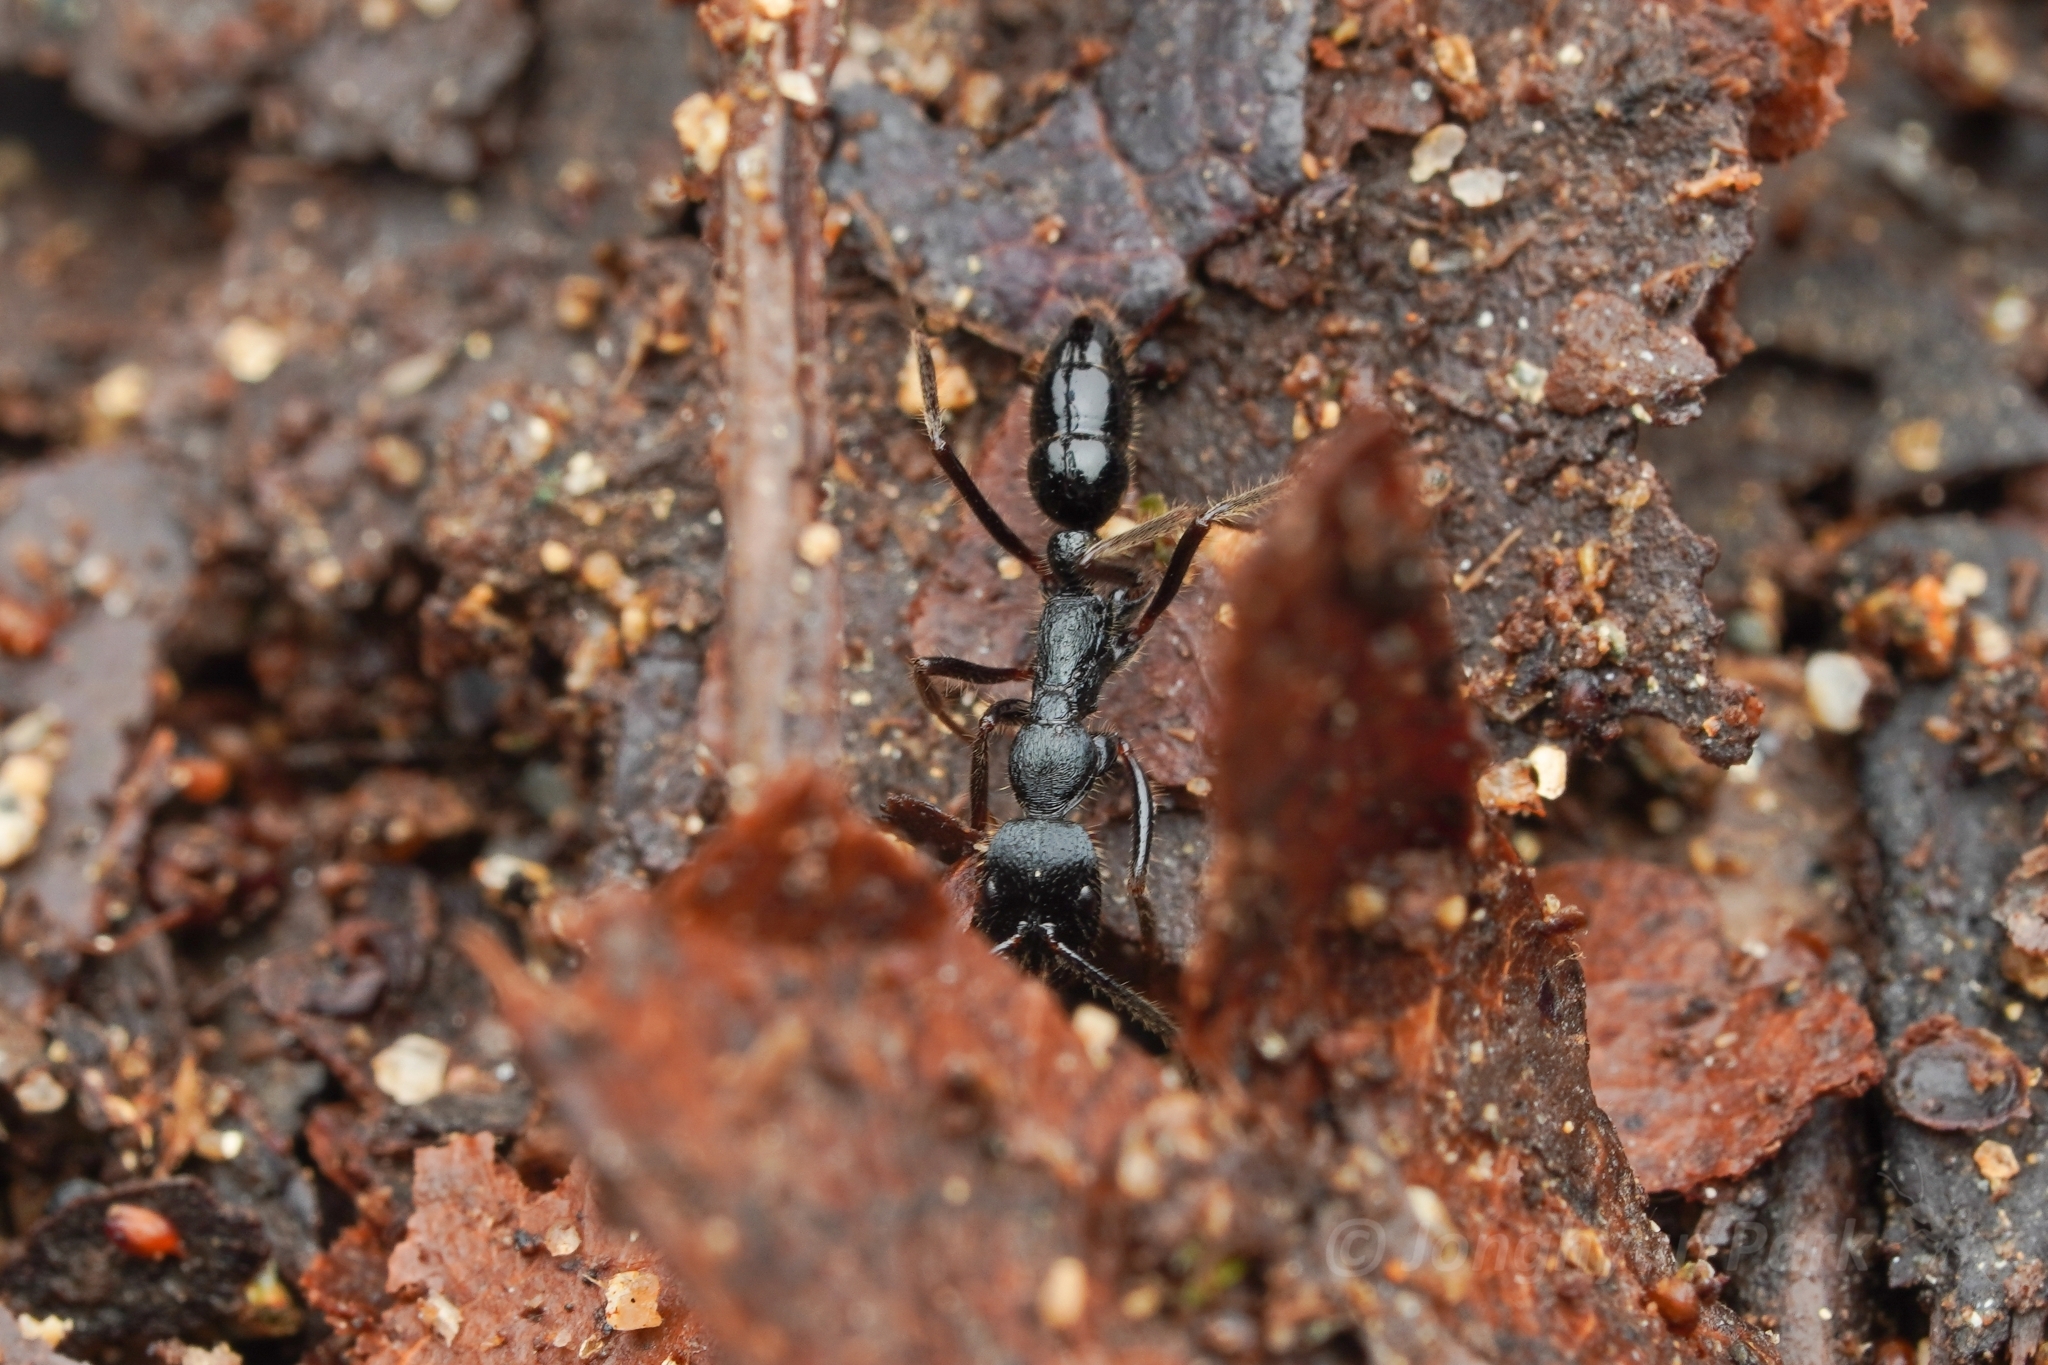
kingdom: Animalia
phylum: Arthropoda
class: Insecta
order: Hymenoptera
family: Formicidae
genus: Leptogenys
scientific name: Leptogenys diminuta
